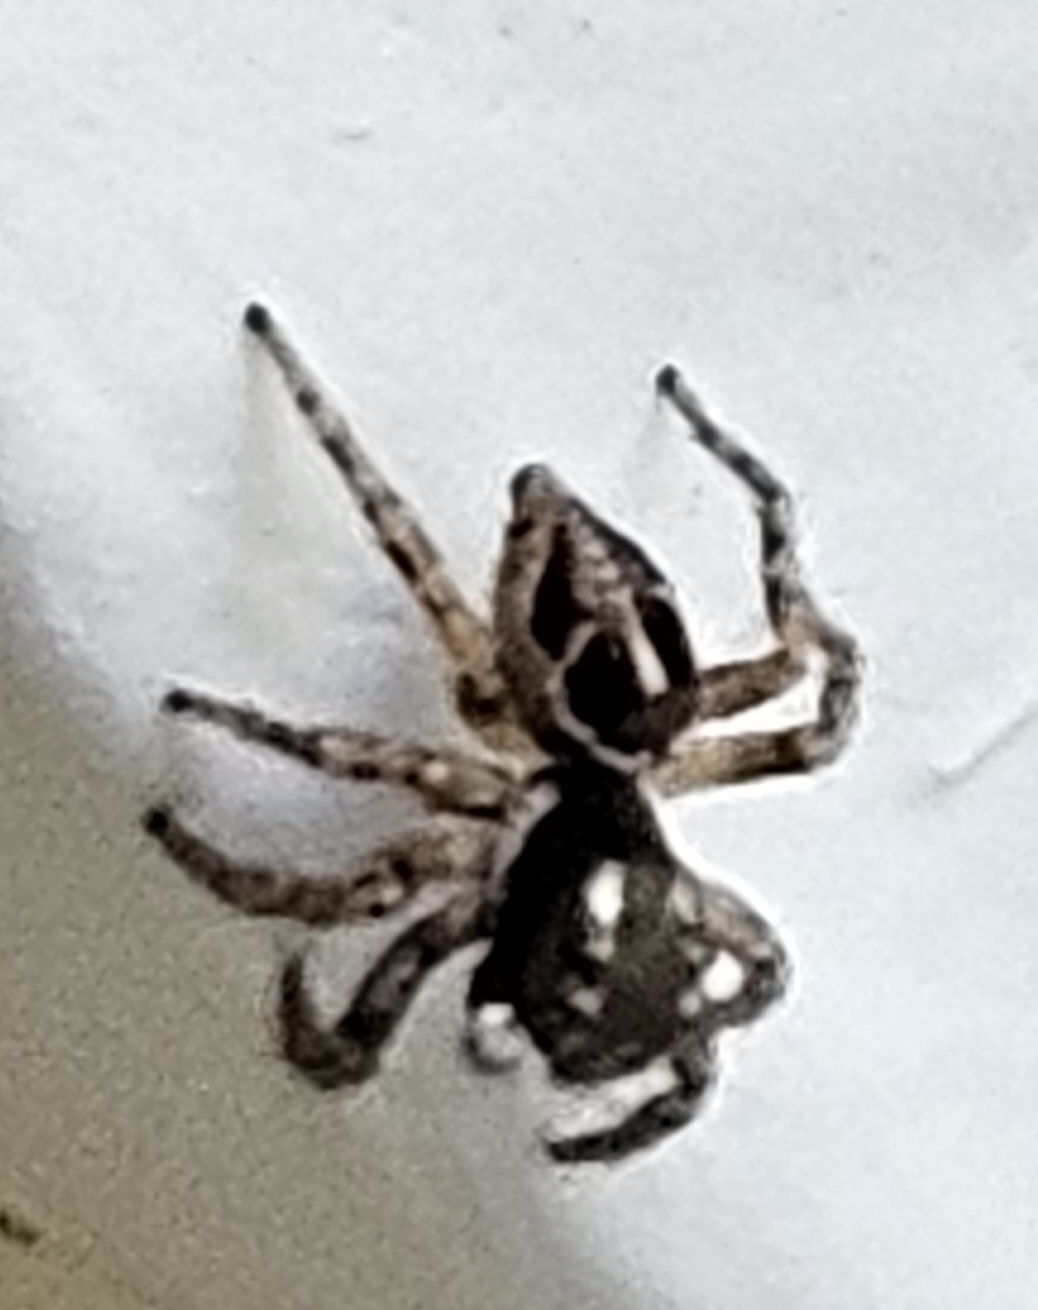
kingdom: Animalia
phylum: Arthropoda
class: Arachnida
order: Araneae
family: Salticidae
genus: Anasaitis
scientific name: Anasaitis canosa
